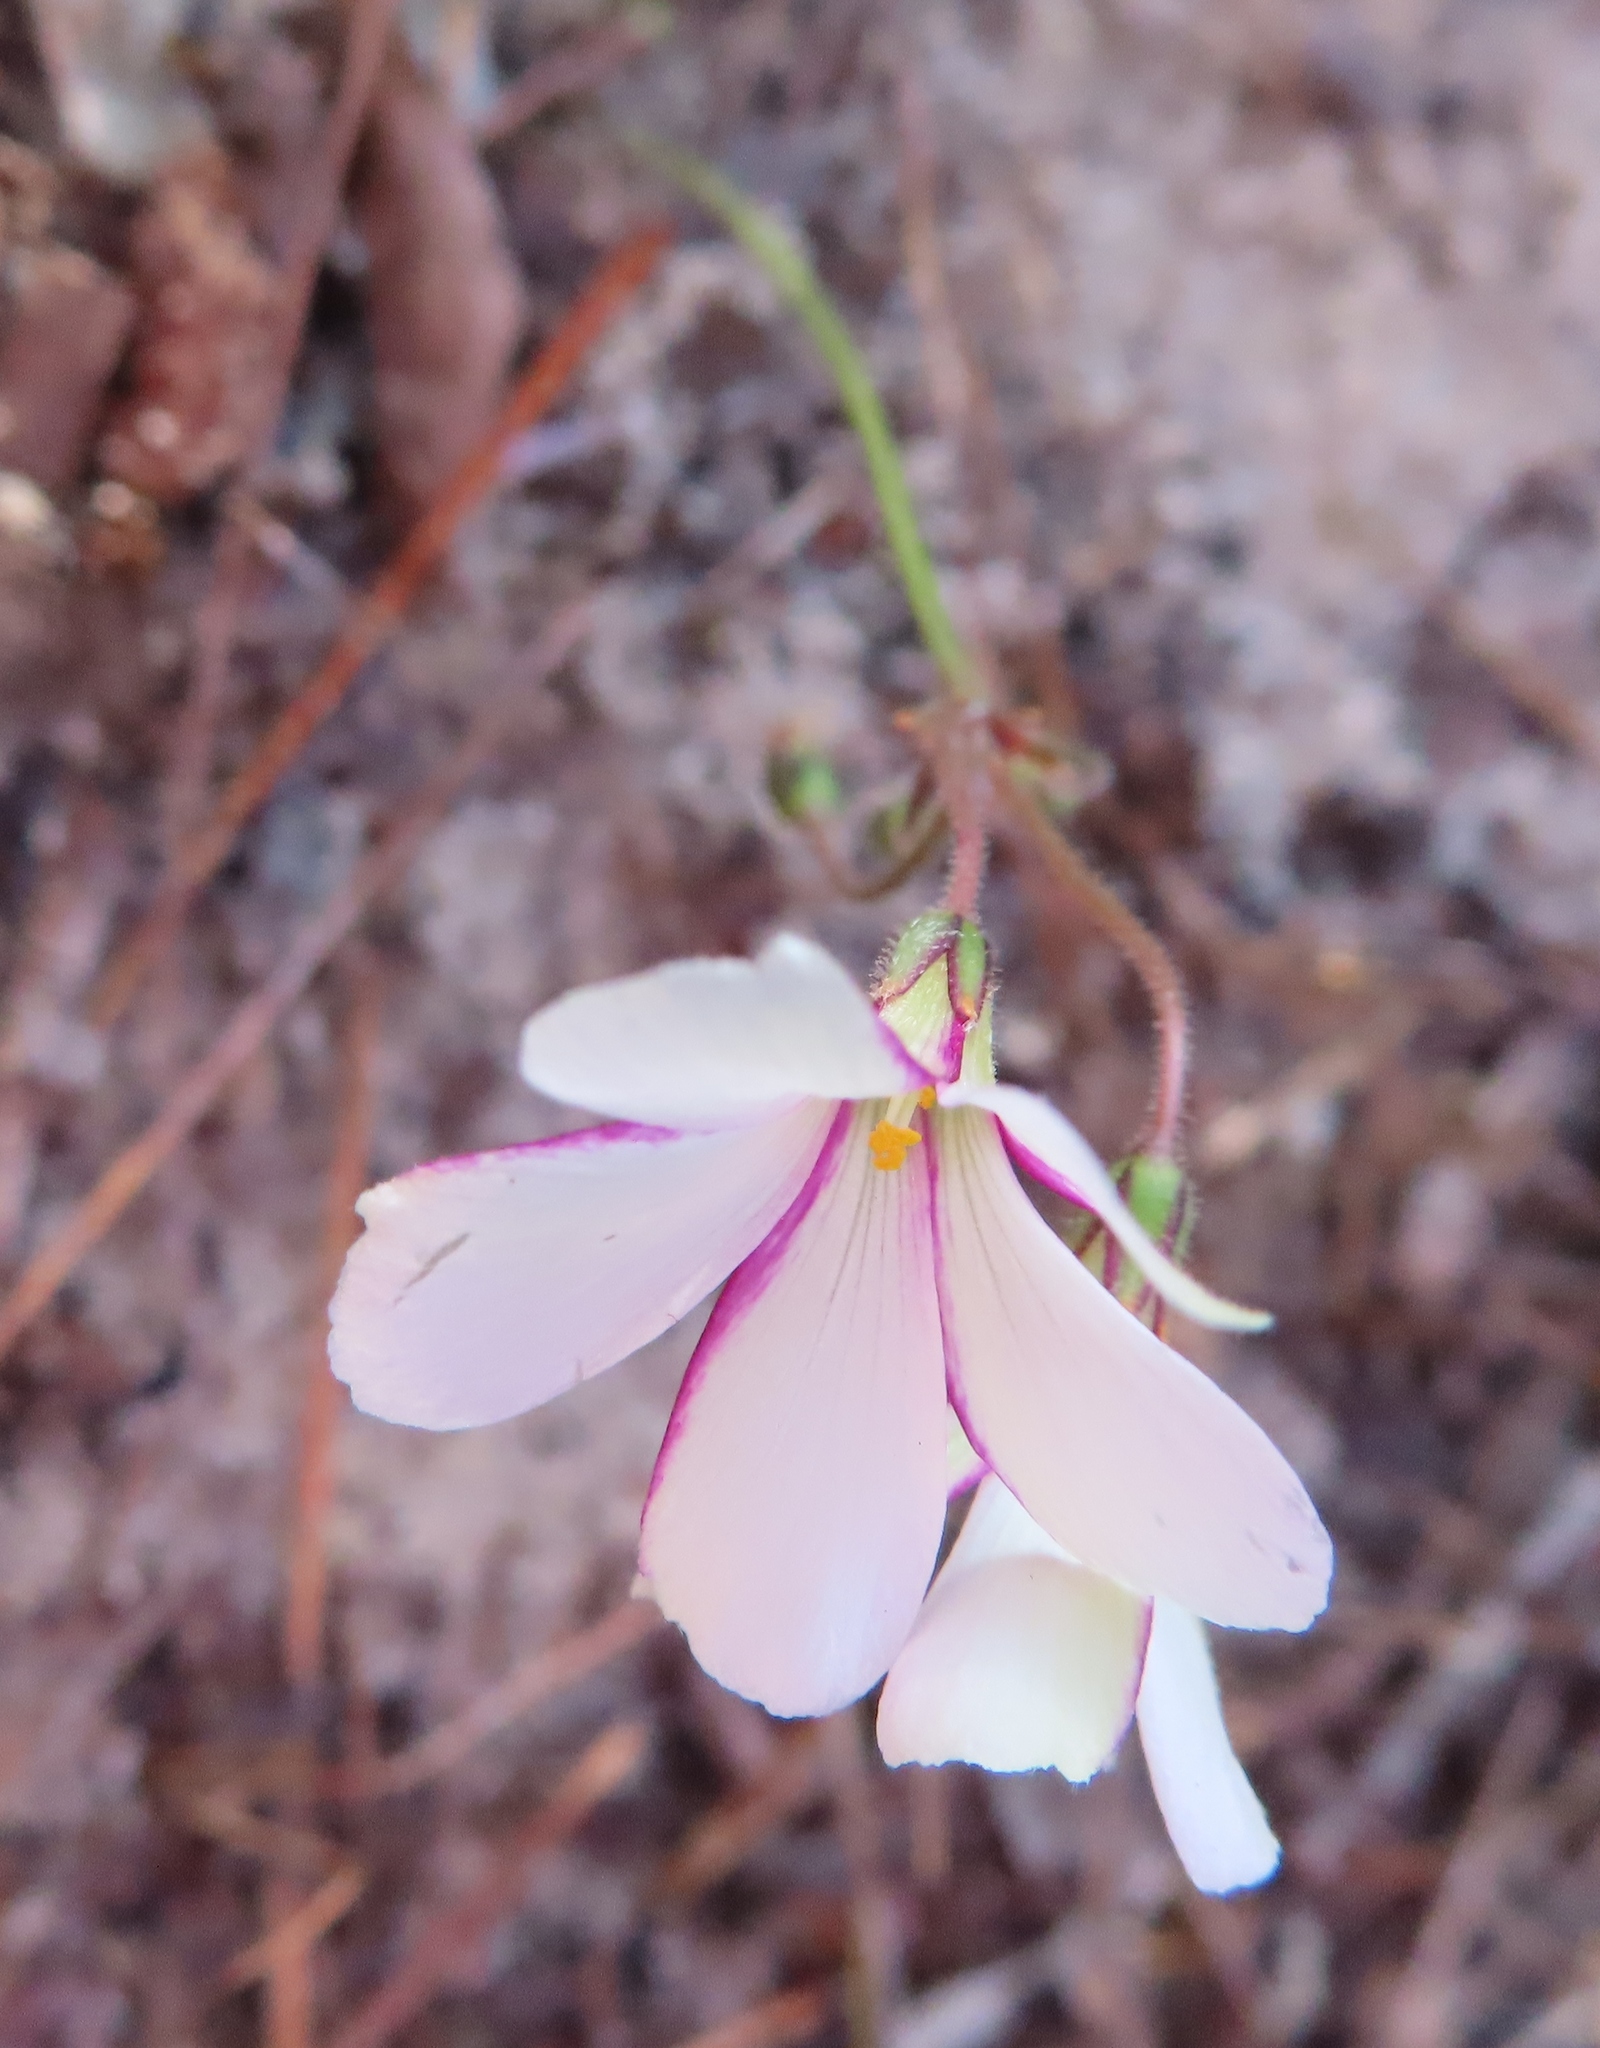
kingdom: Plantae
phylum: Tracheophyta
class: Magnoliopsida
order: Oxalidales
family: Oxalidaceae
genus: Oxalis
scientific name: Oxalis livida
